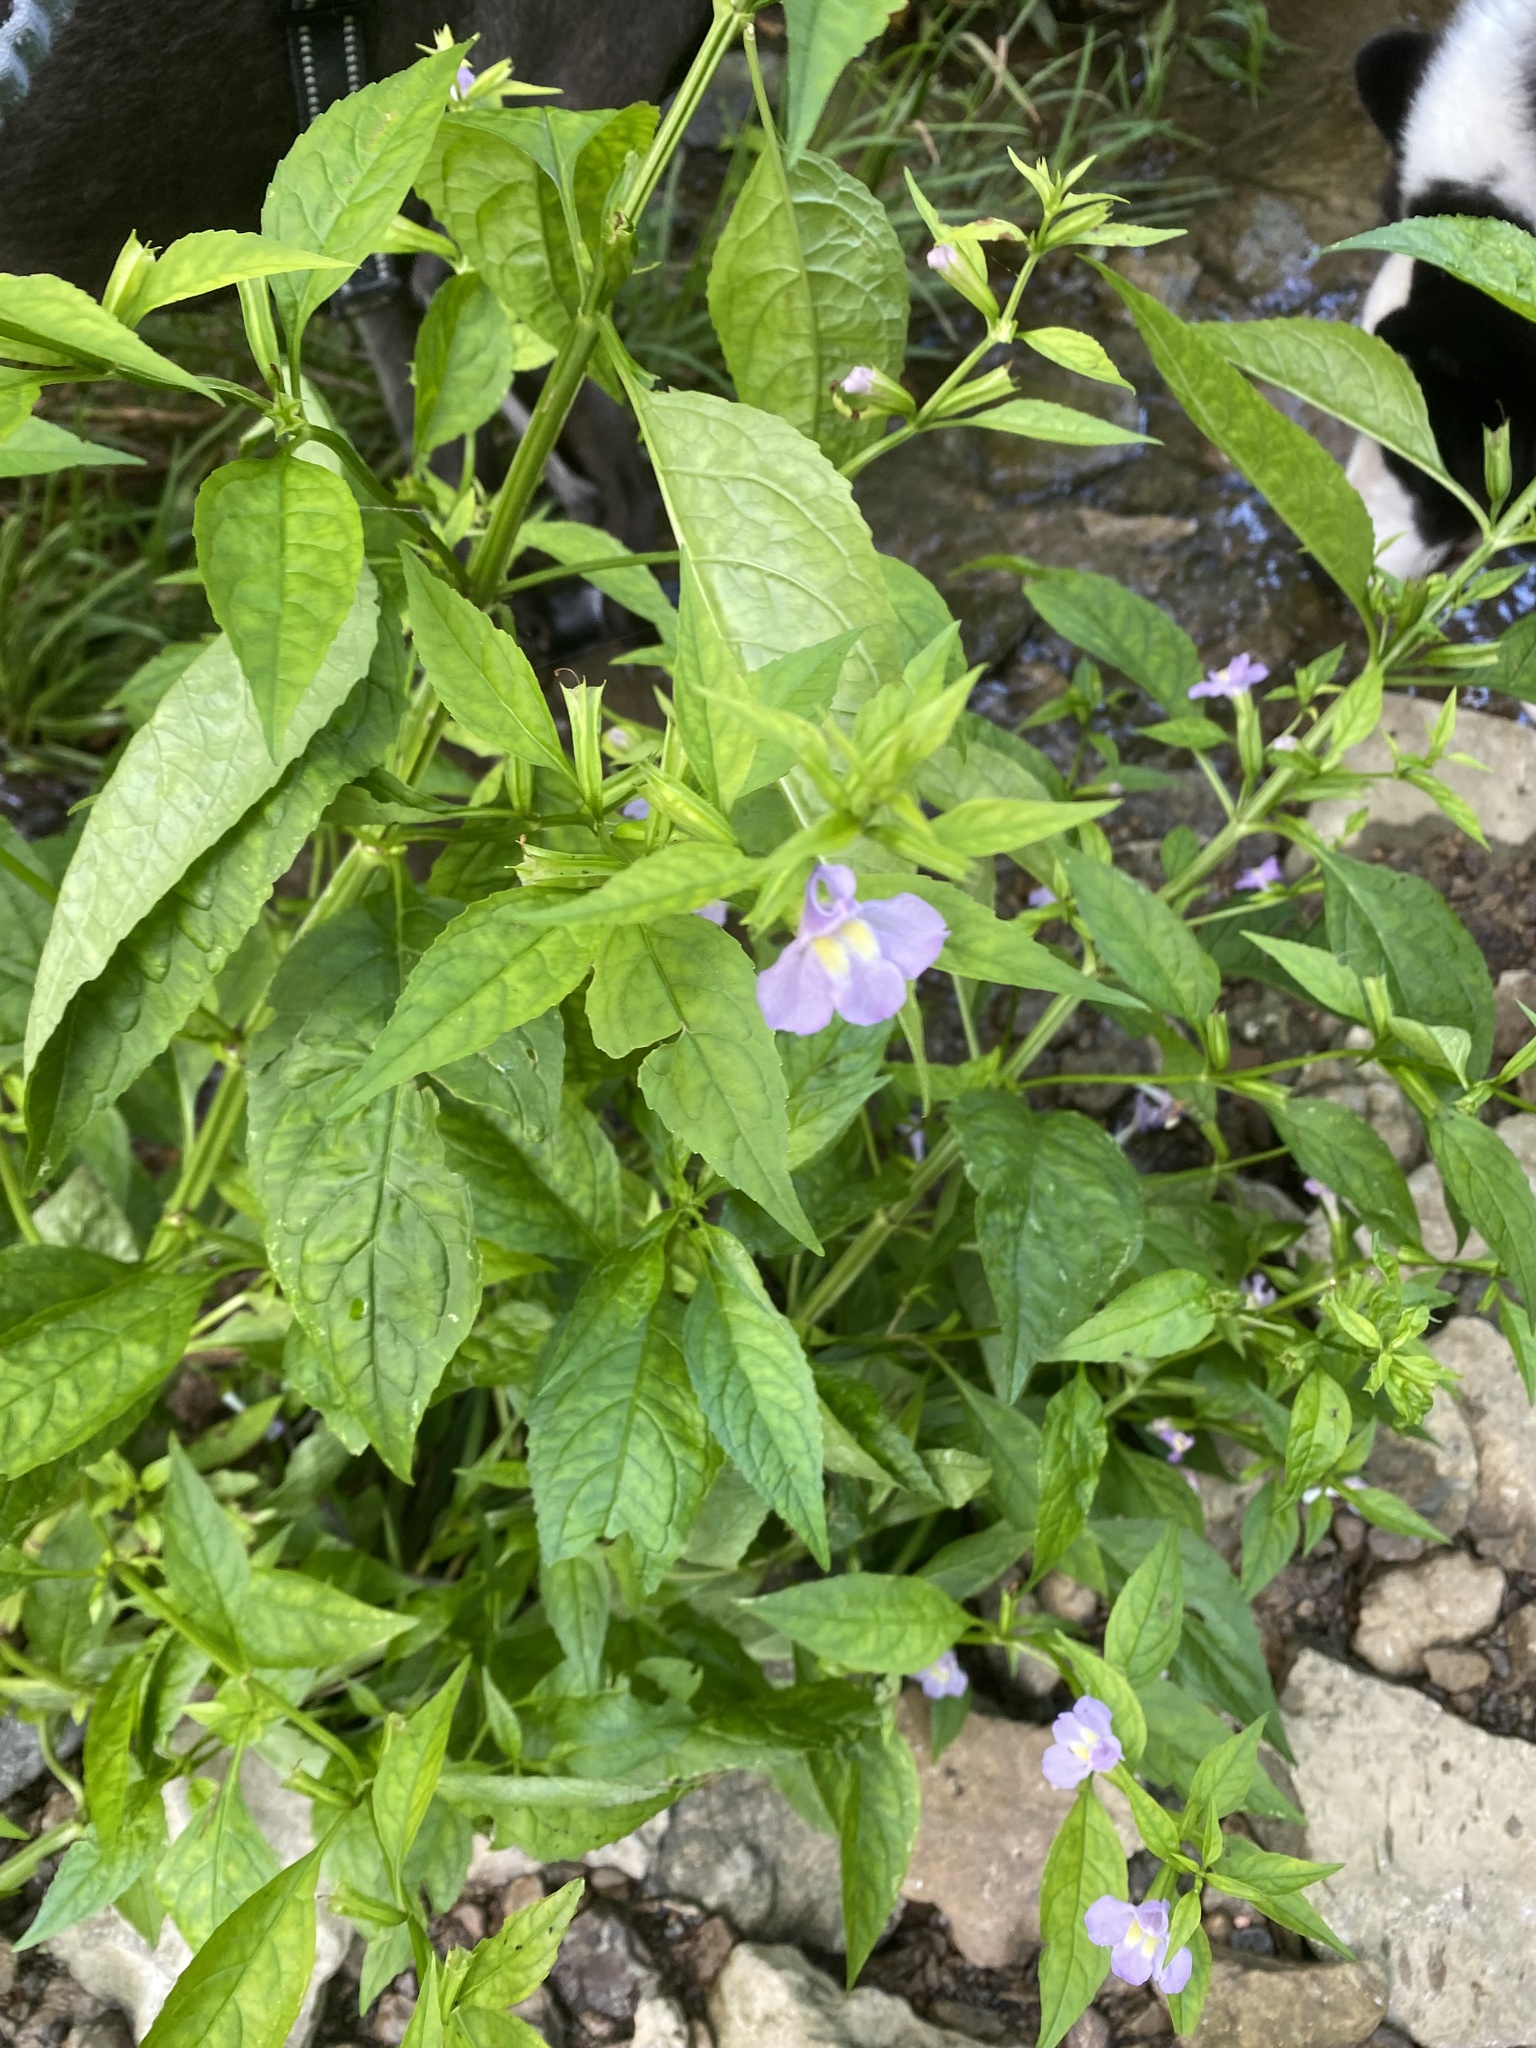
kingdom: Plantae
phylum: Tracheophyta
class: Magnoliopsida
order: Lamiales
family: Phrymaceae
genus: Mimulus
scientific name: Mimulus alatus
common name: Sharp-wing monkey-flower
